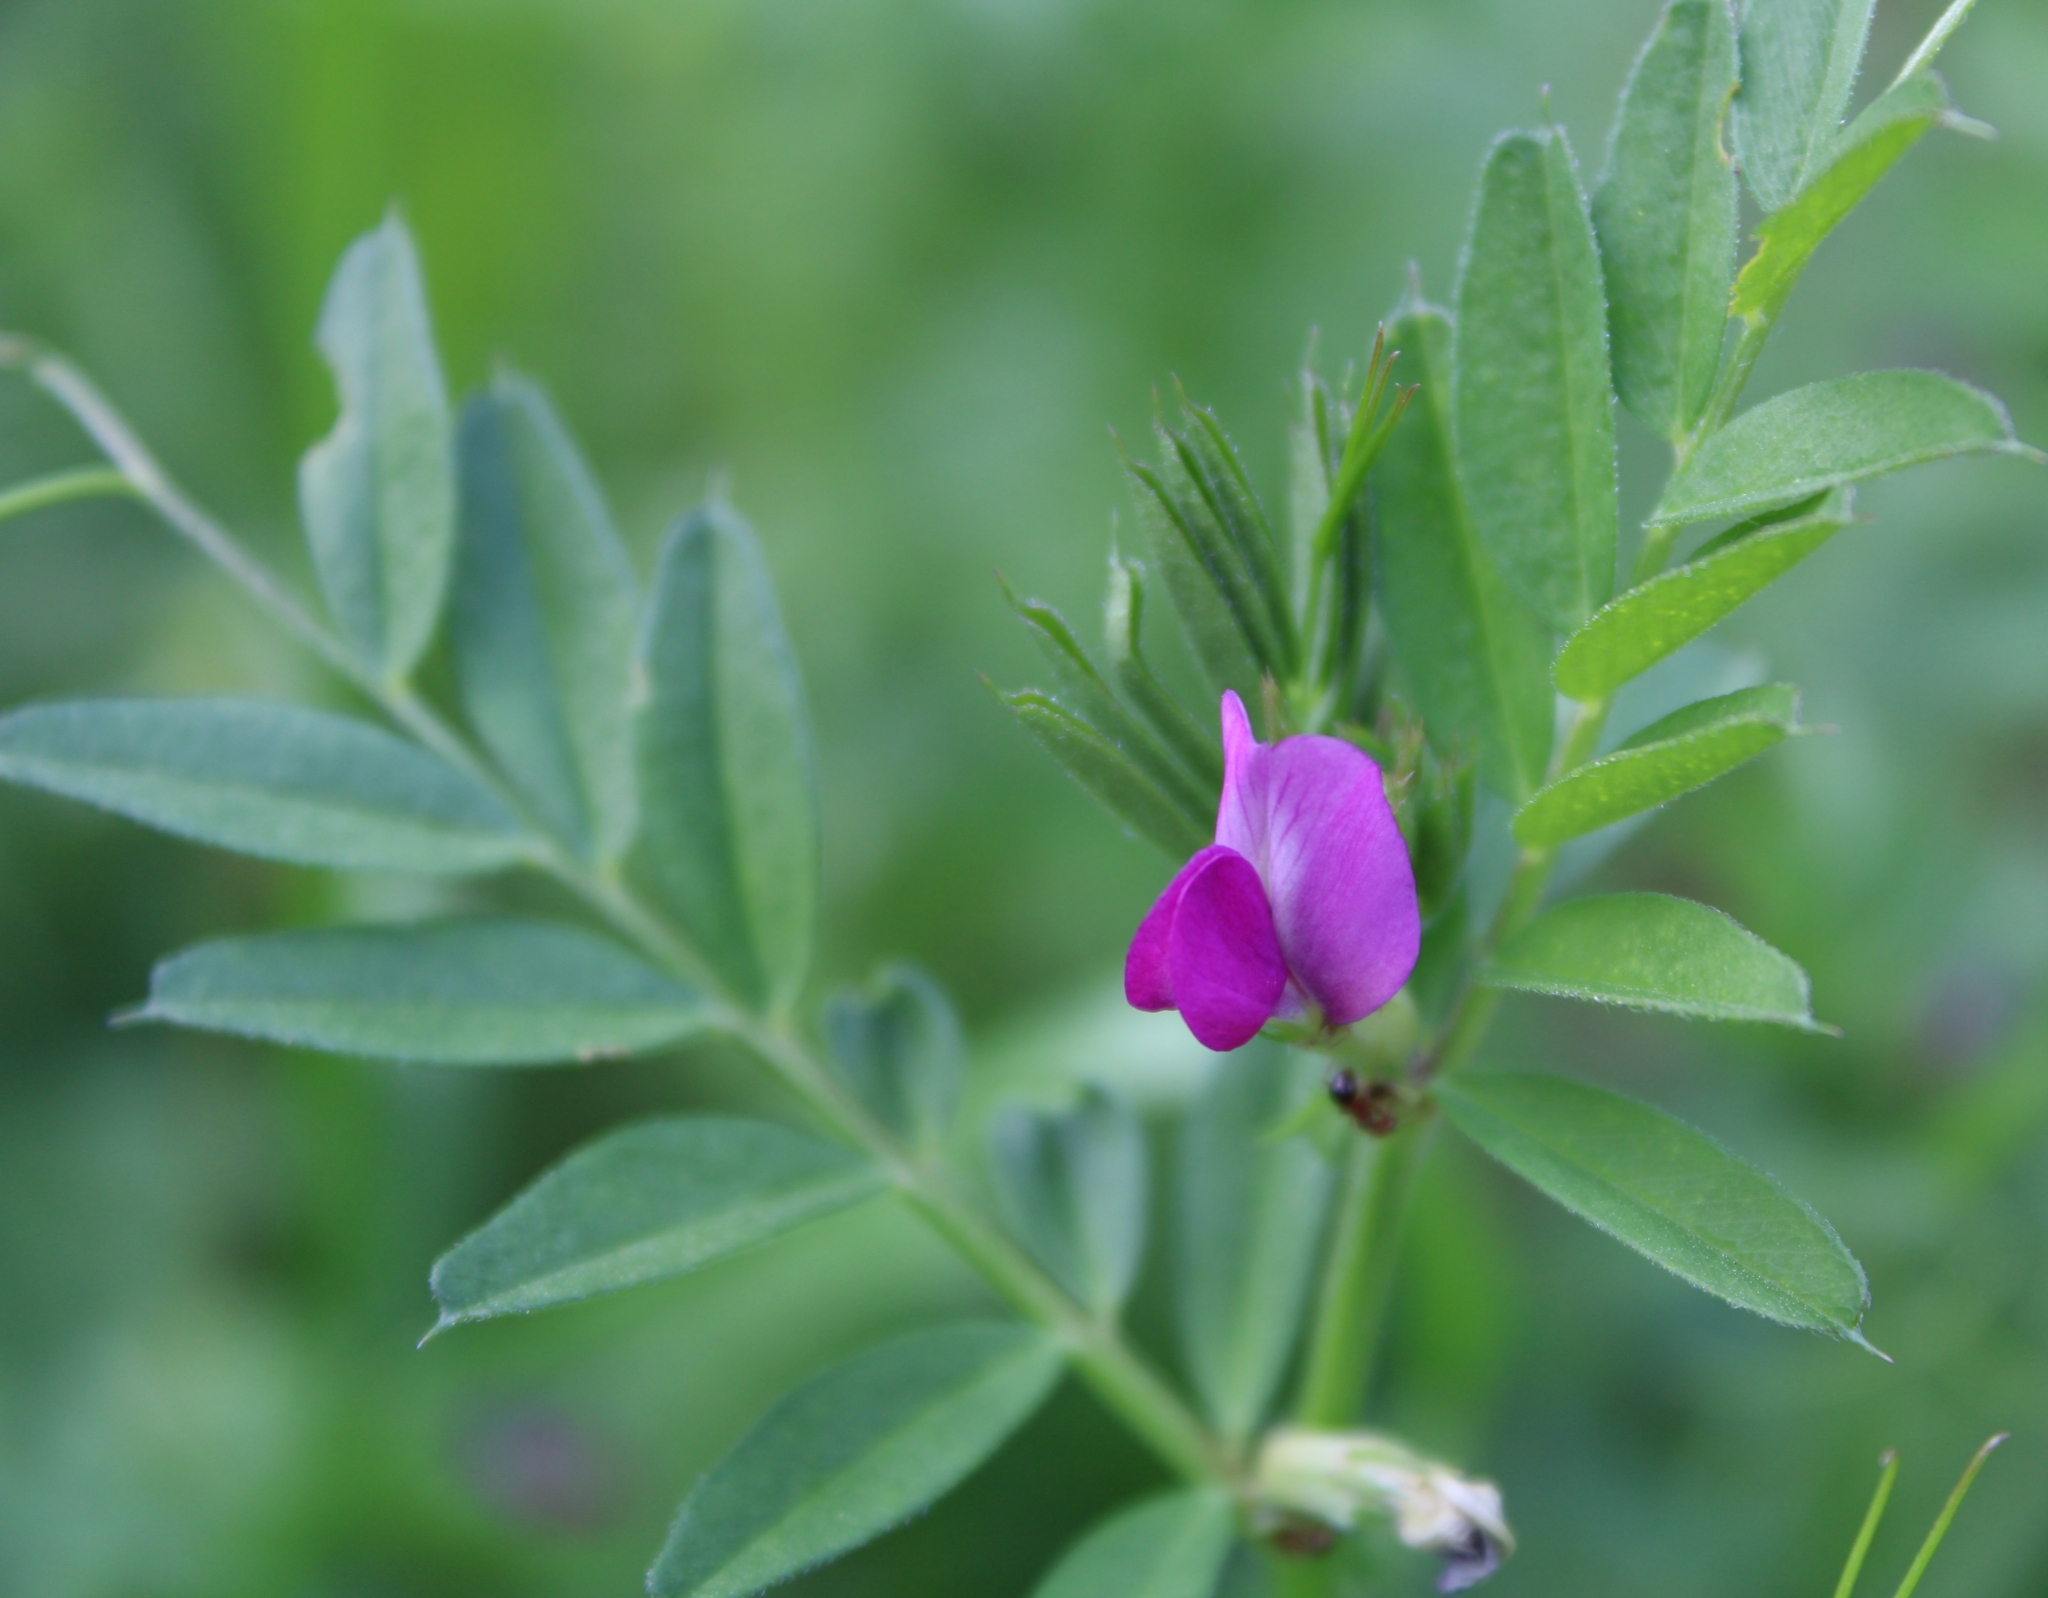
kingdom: Plantae
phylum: Tracheophyta
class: Magnoliopsida
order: Fabales
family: Fabaceae
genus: Vicia
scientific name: Vicia sativa
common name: Garden vetch
